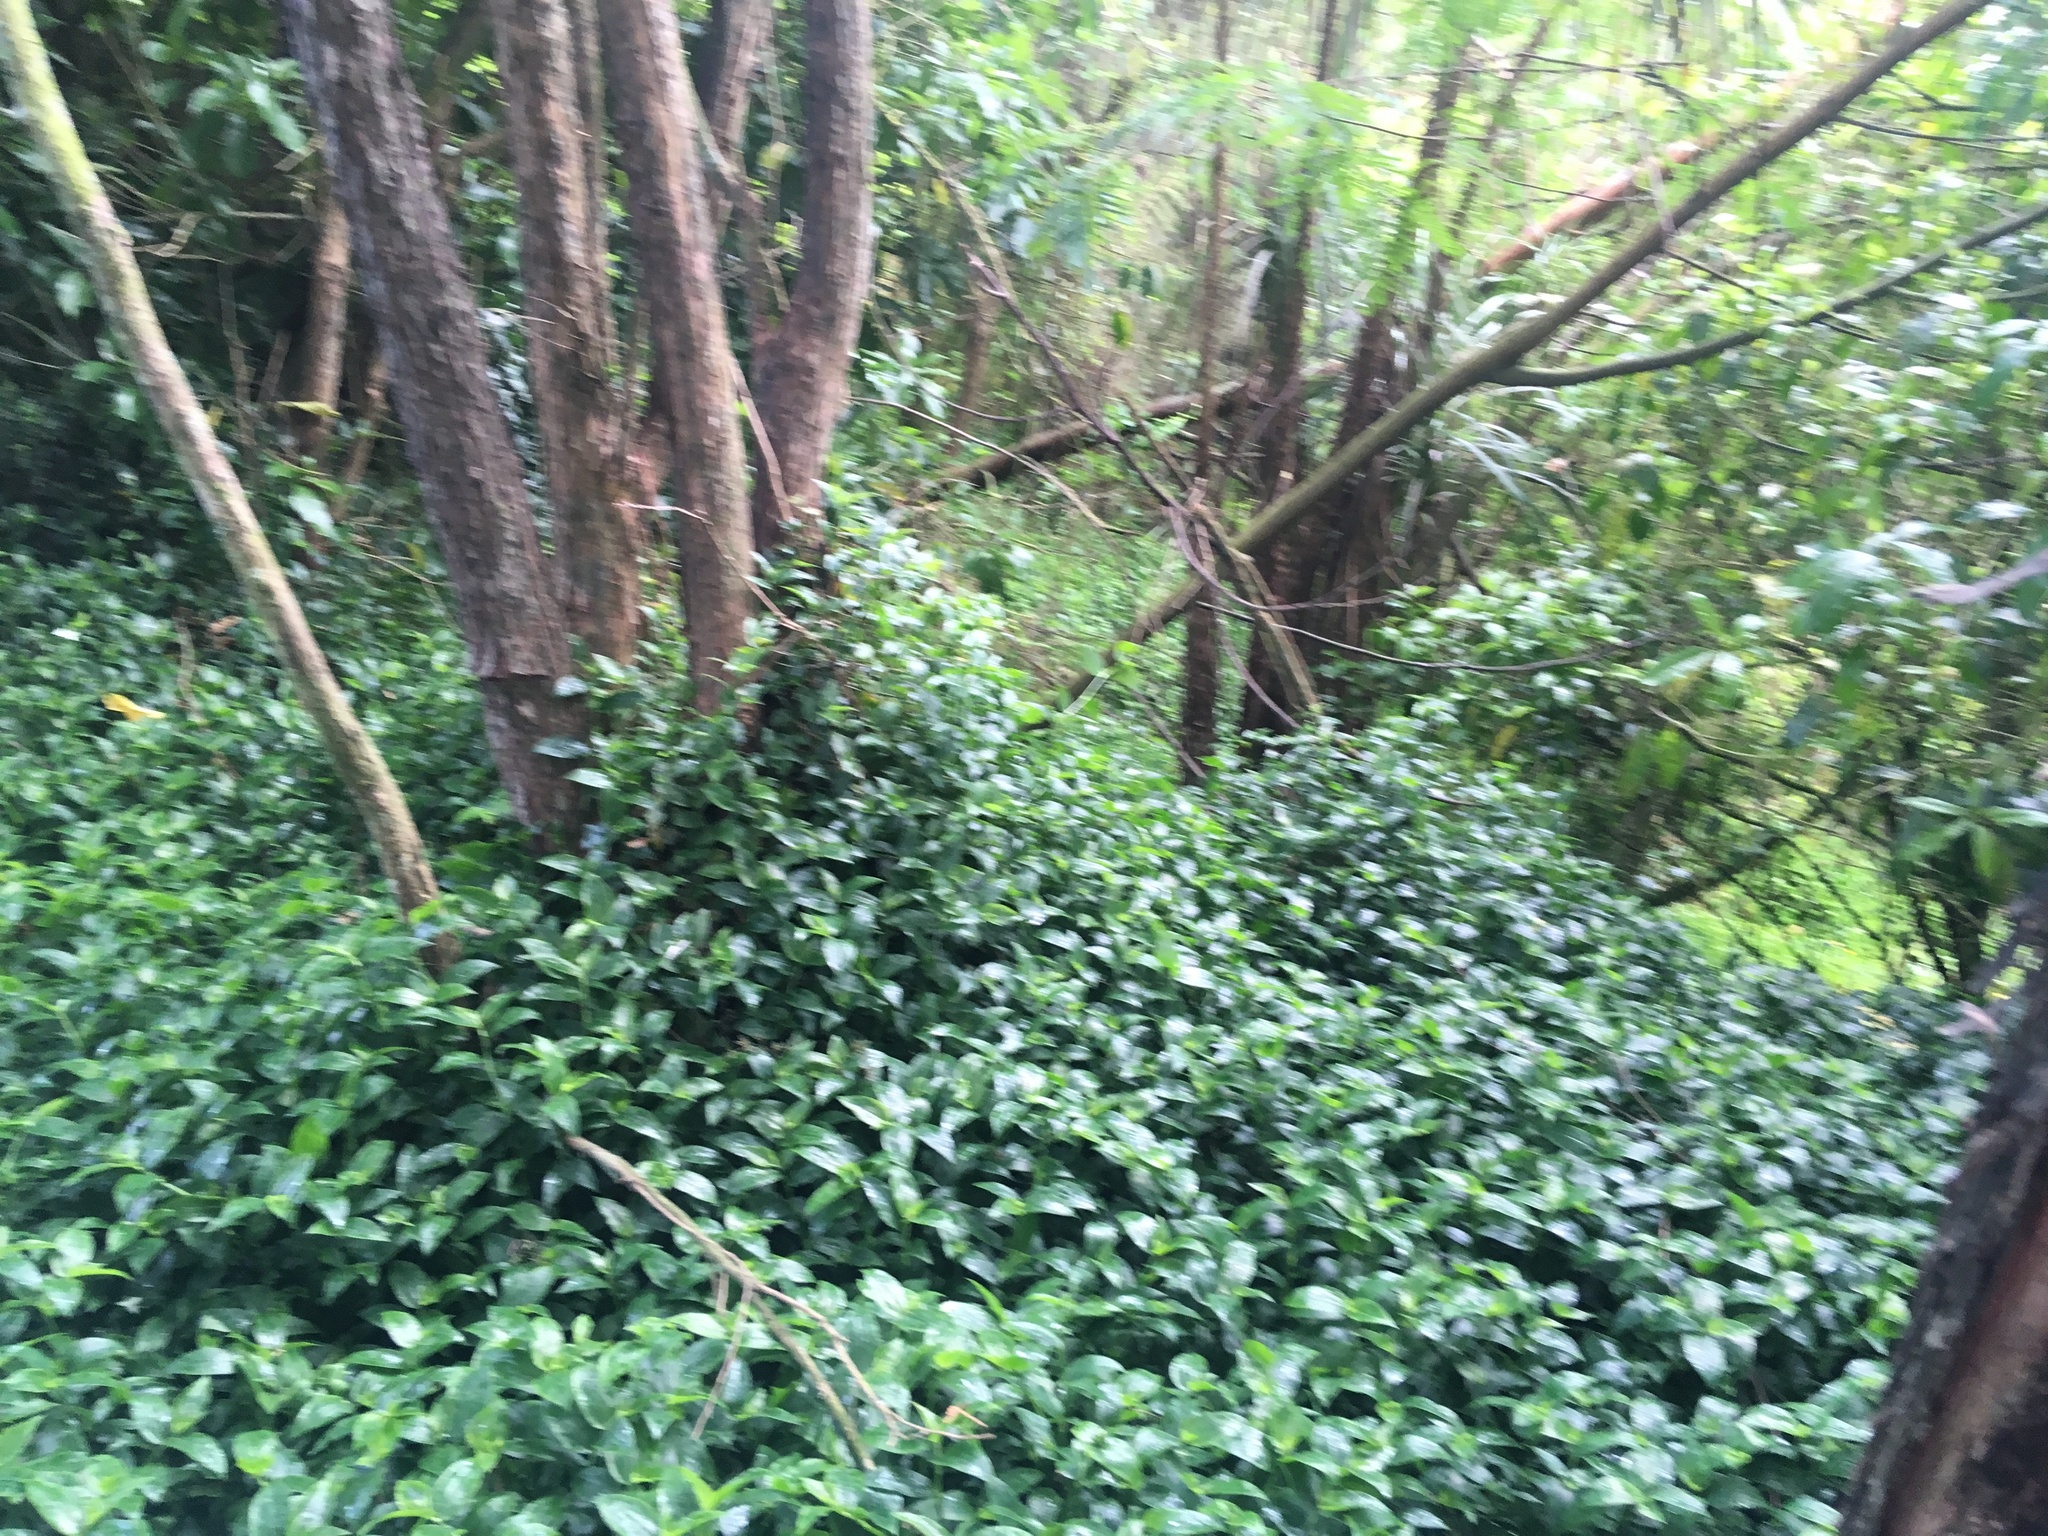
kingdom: Plantae
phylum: Tracheophyta
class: Liliopsida
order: Commelinales
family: Commelinaceae
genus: Tradescantia
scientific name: Tradescantia fluminensis
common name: Wandering-jew
